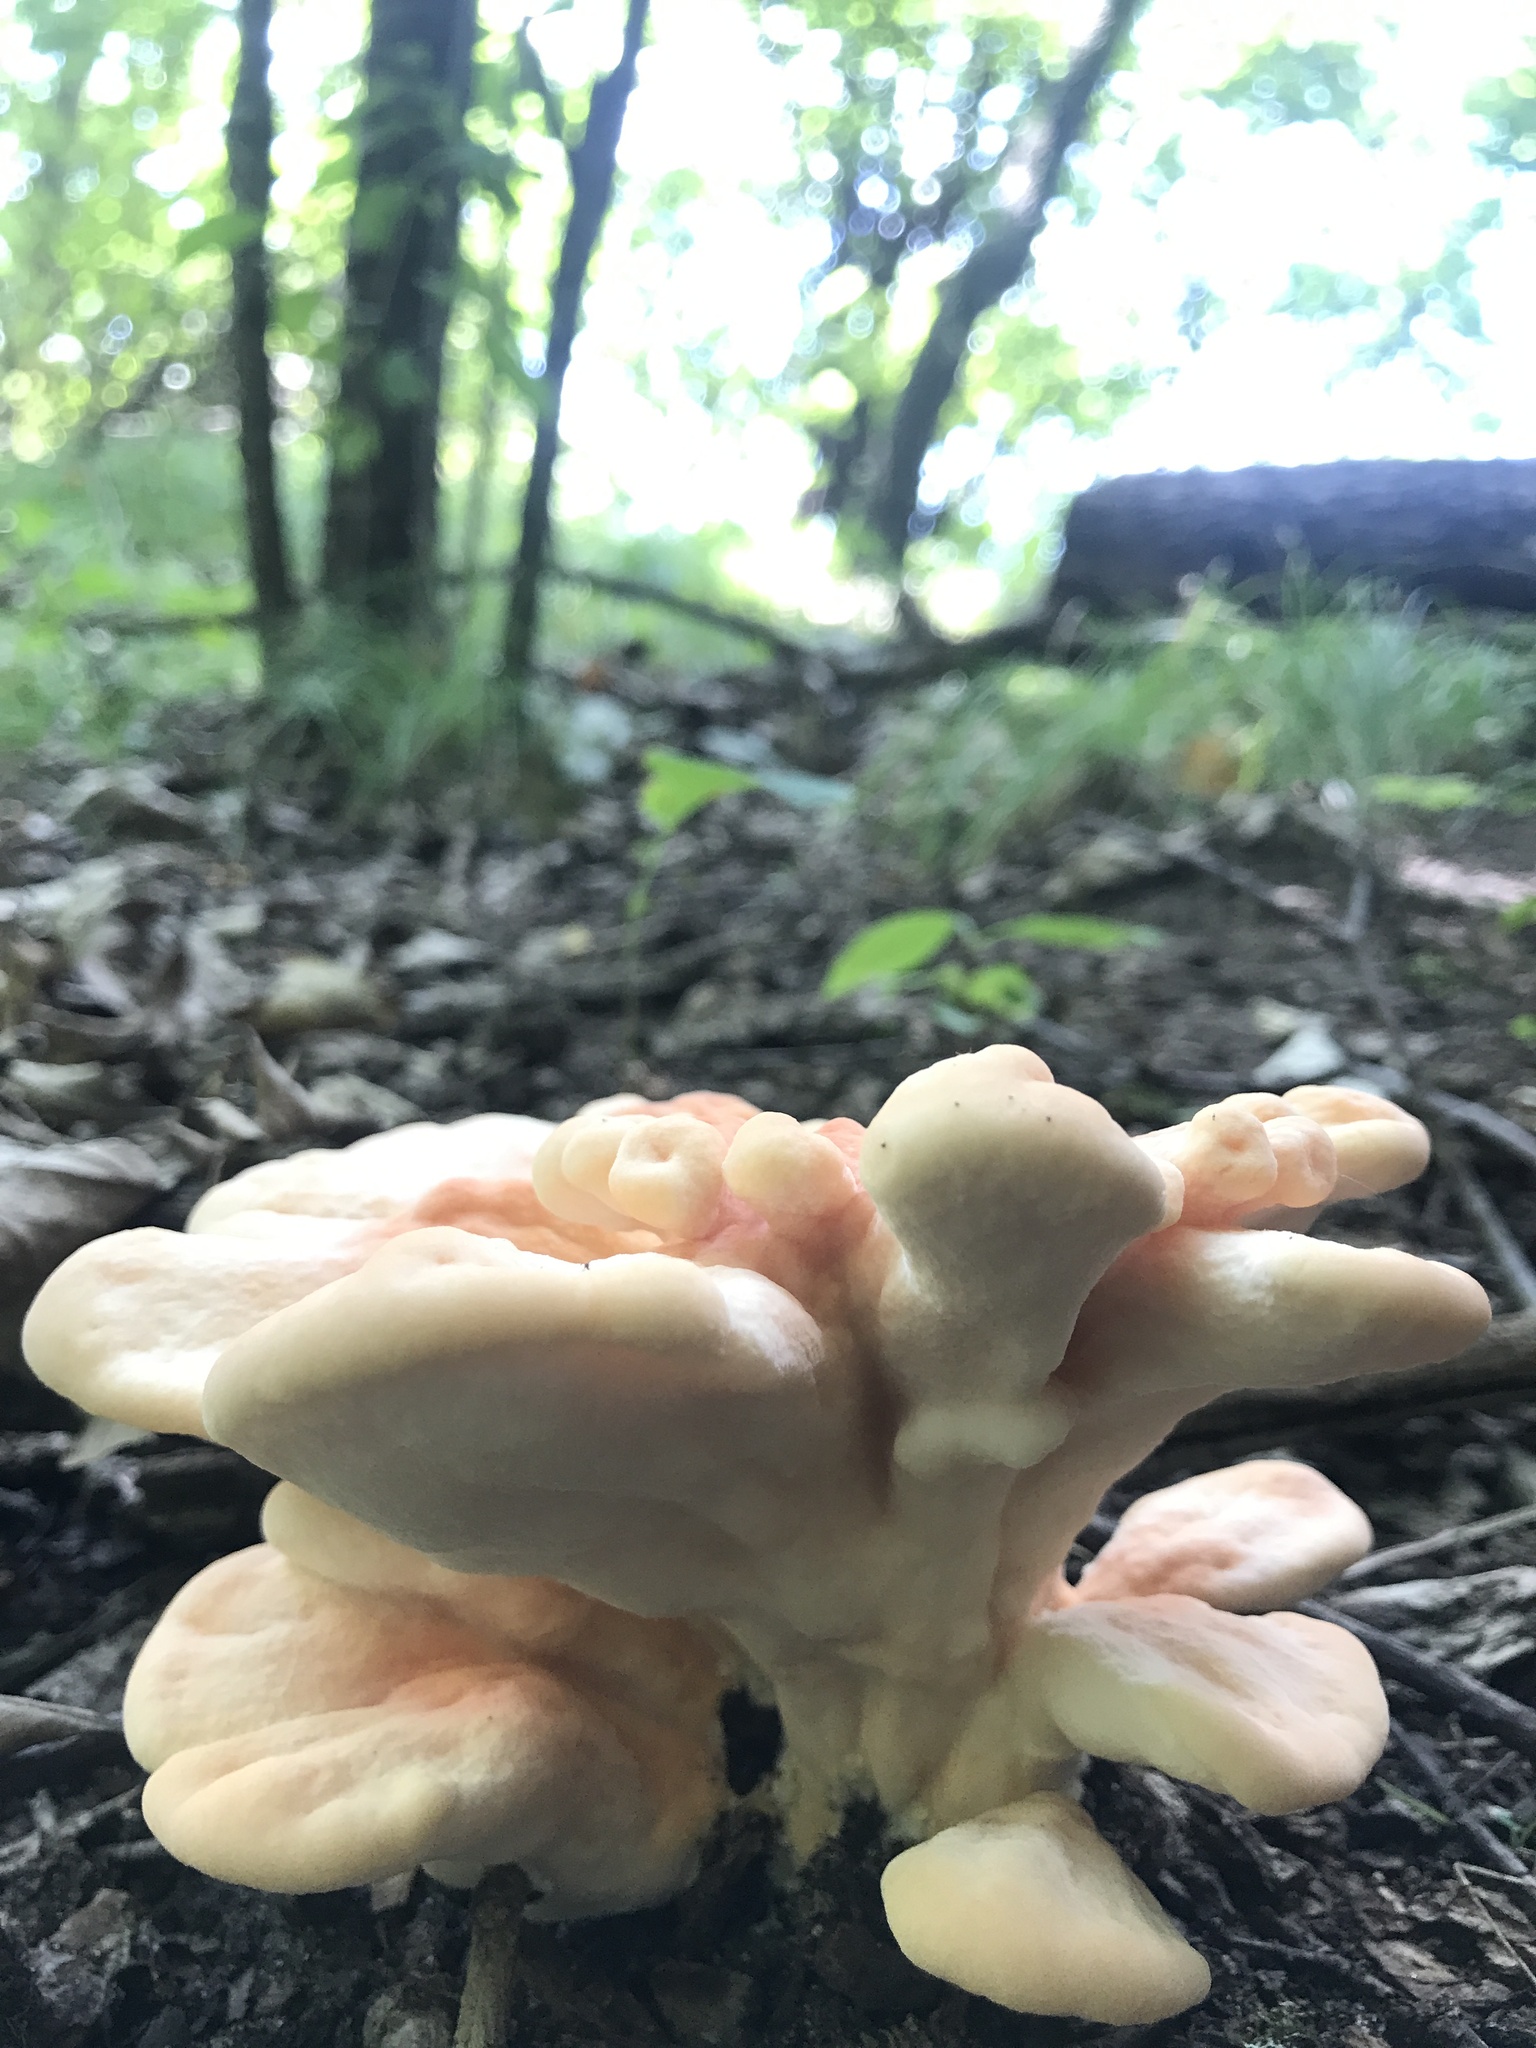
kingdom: Fungi
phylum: Basidiomycota
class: Agaricomycetes
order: Polyporales
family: Laetiporaceae
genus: Laetiporus
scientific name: Laetiporus sulphureus
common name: Chicken of the woods
